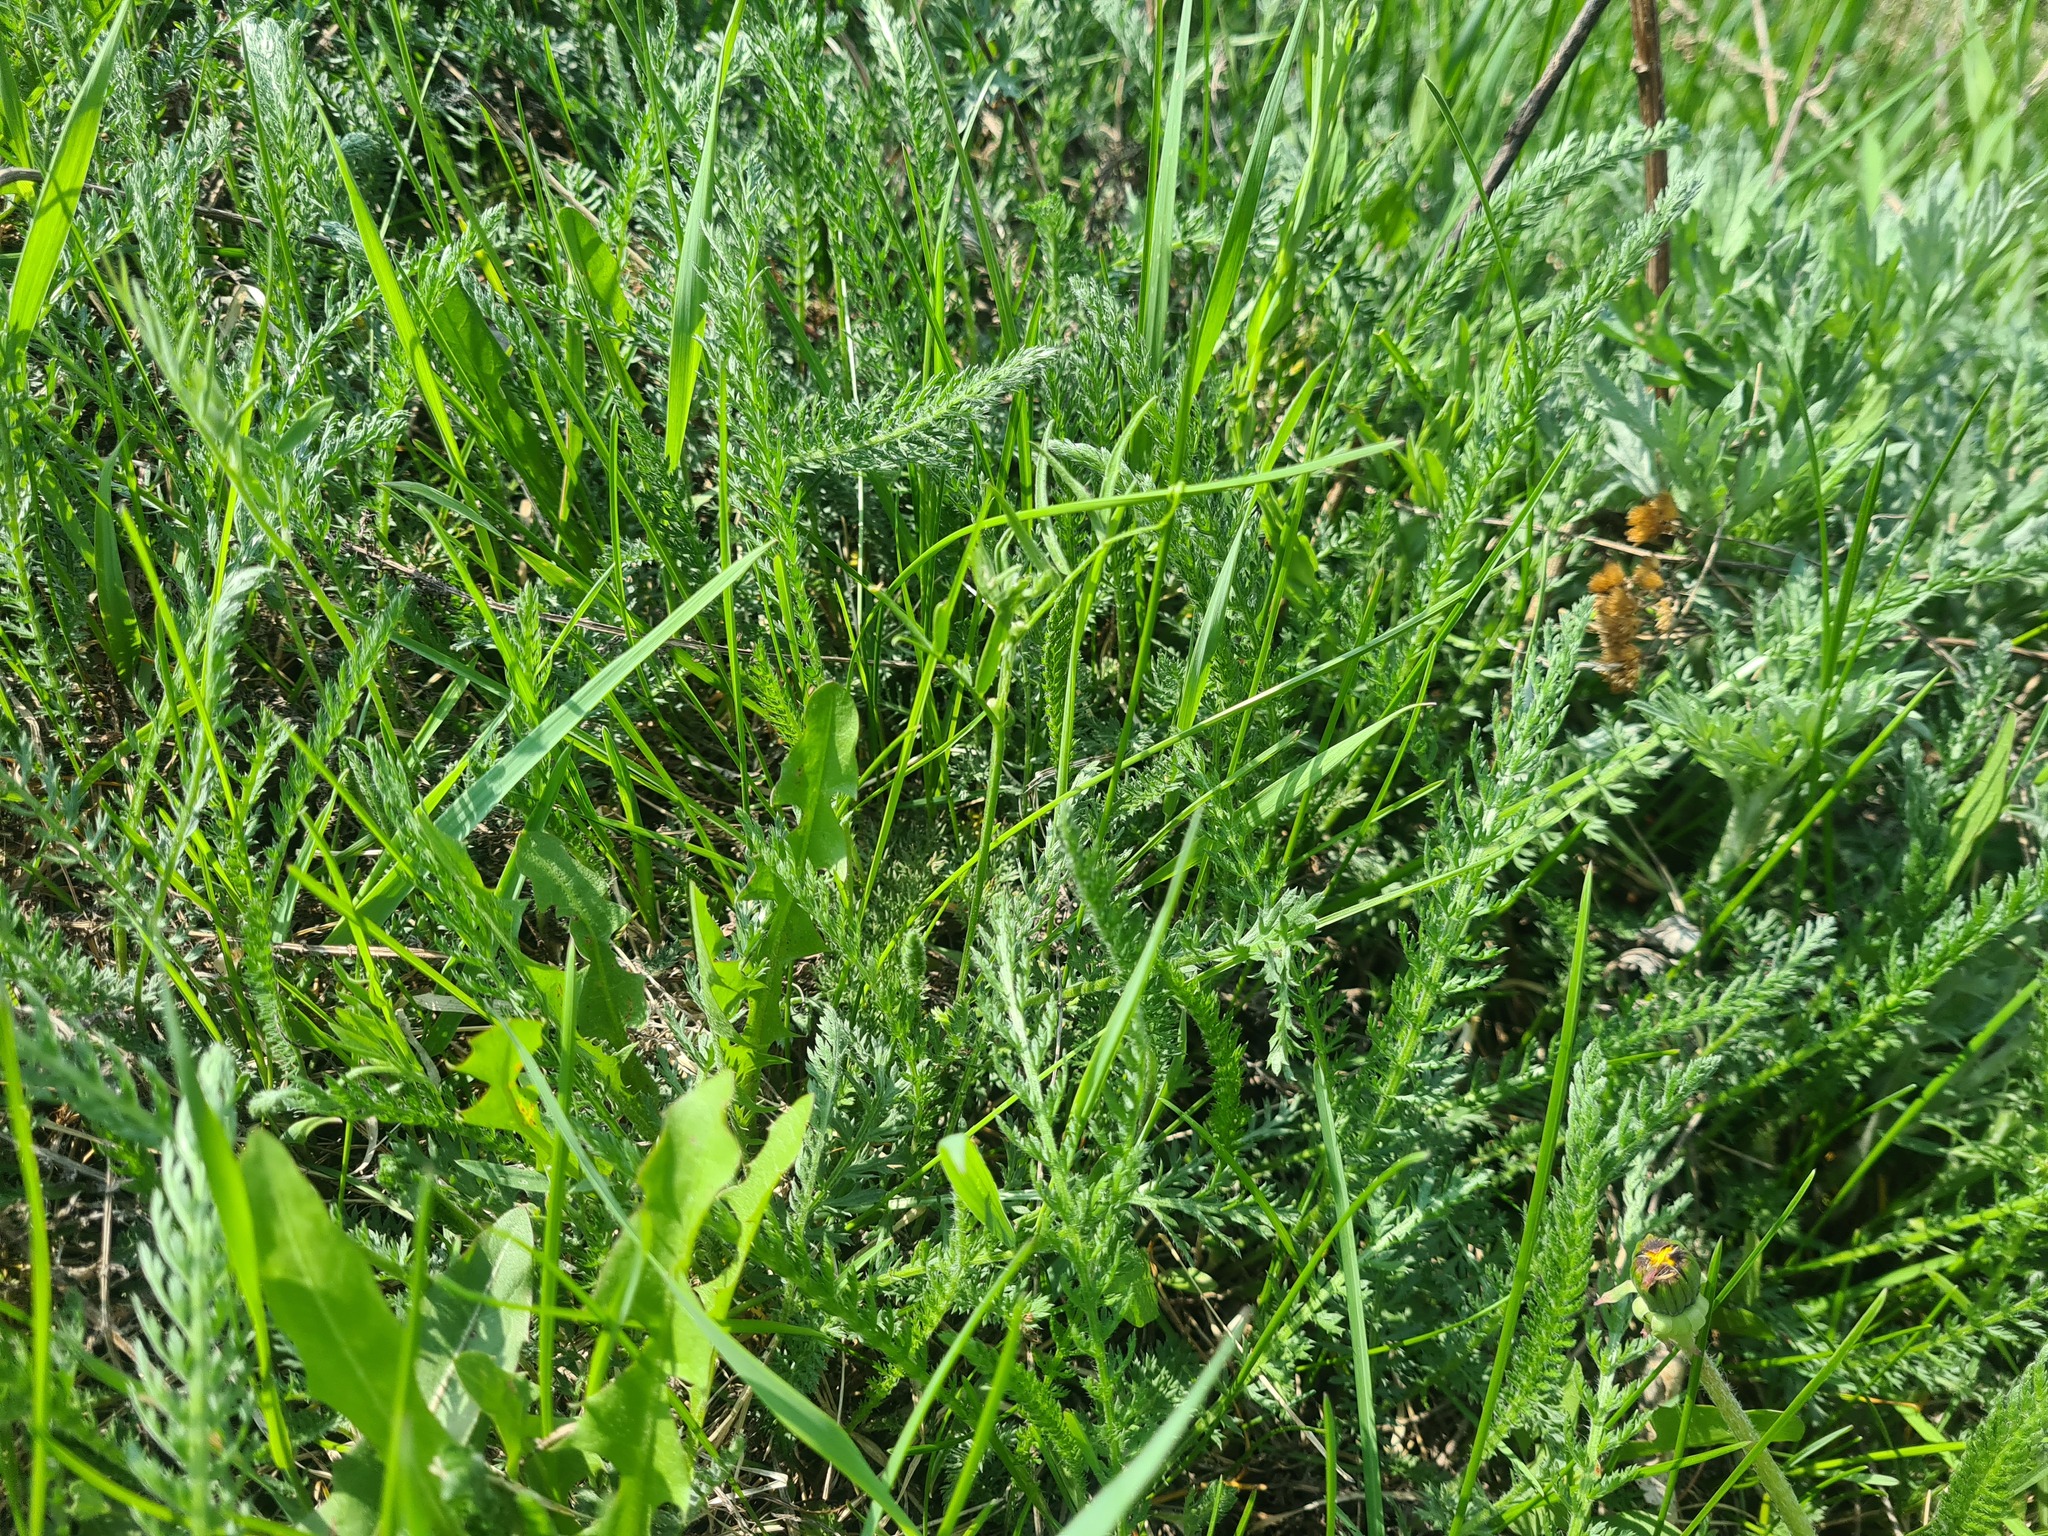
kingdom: Plantae
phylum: Tracheophyta
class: Magnoliopsida
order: Asterales
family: Asteraceae
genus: Achillea
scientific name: Achillea millefolium
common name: Yarrow
